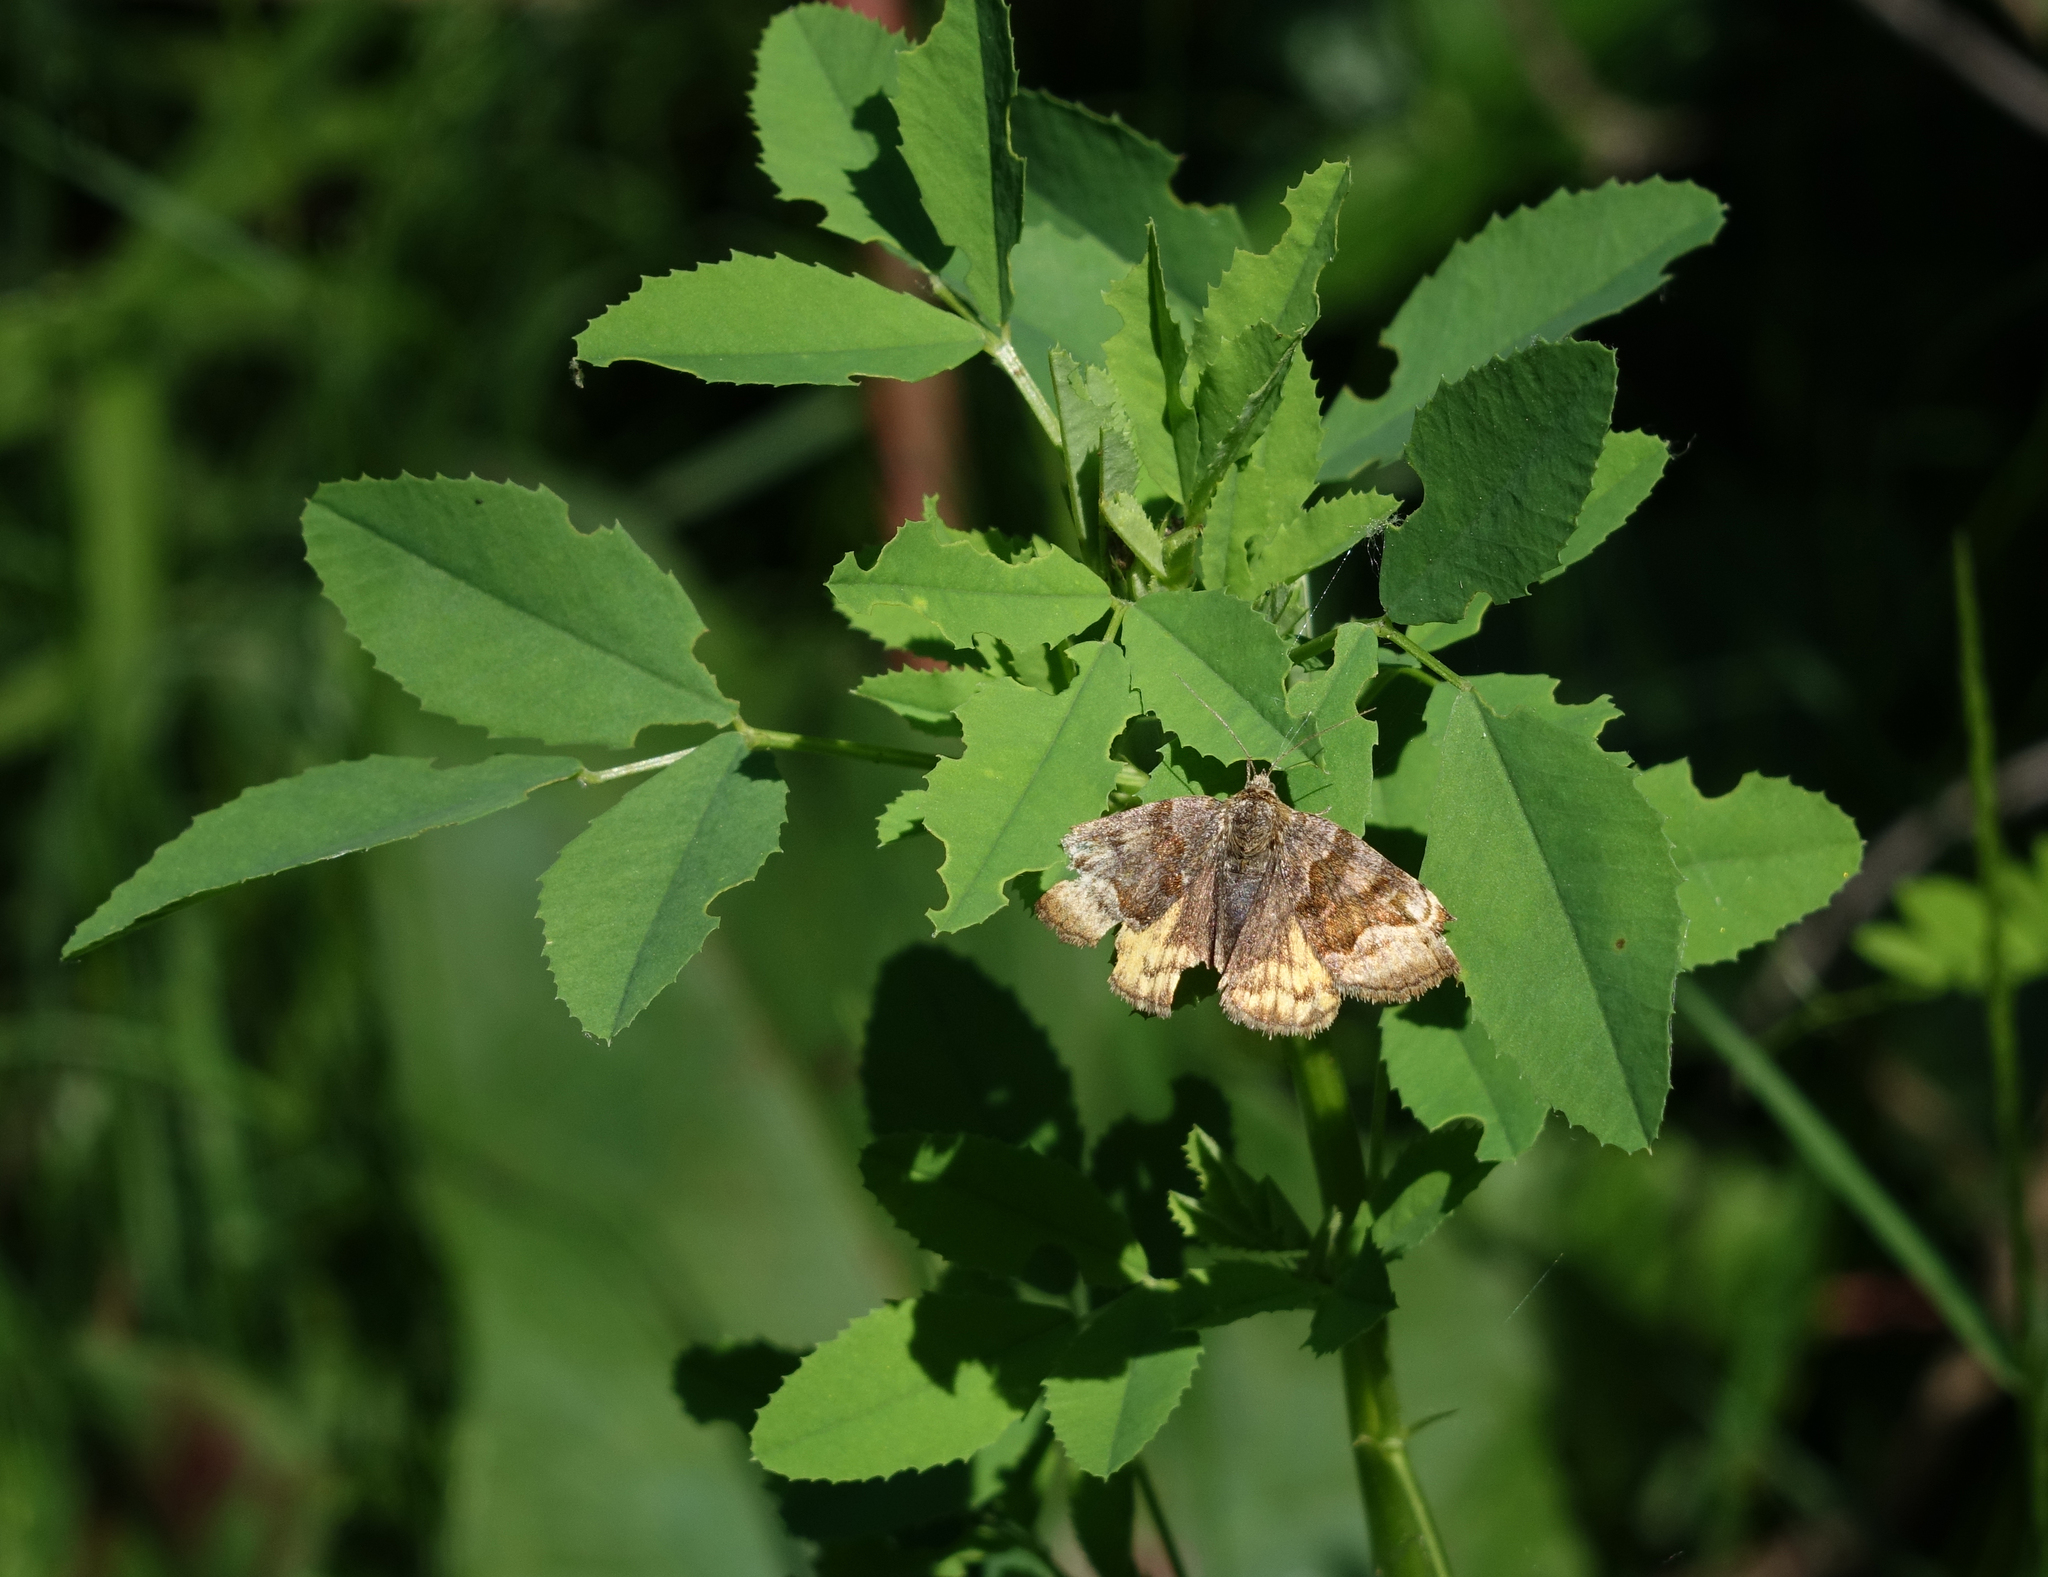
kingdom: Animalia
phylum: Arthropoda
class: Insecta
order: Lepidoptera
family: Erebidae
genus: Euclidia
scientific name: Euclidia glyphica
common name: Burnet companion
